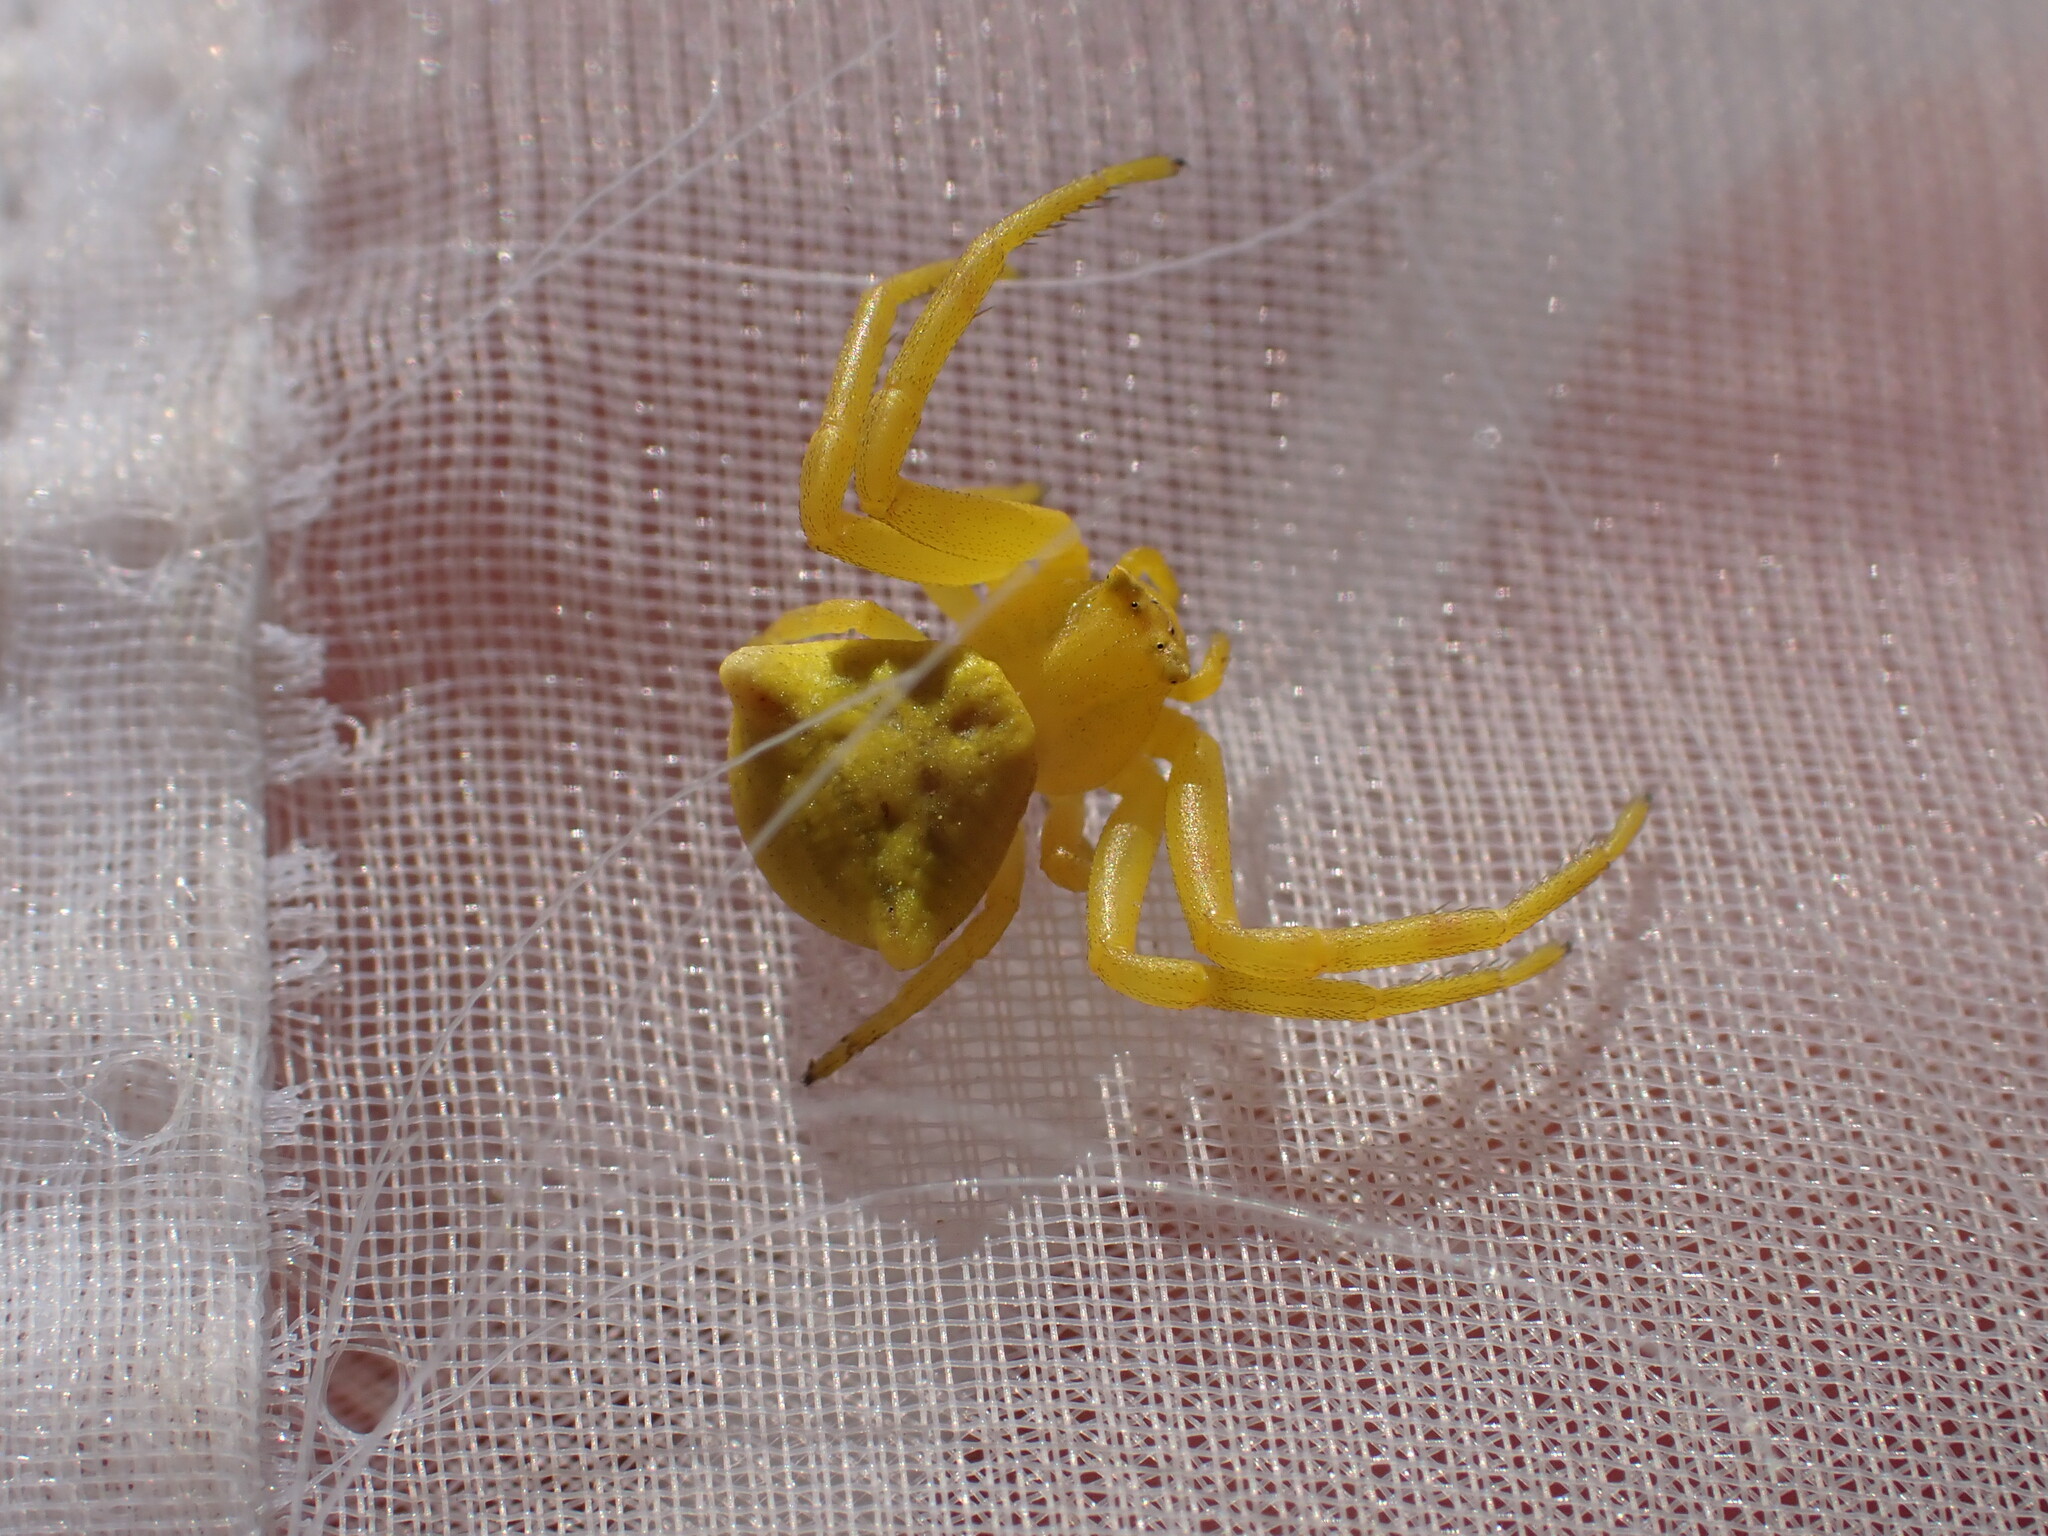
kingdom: Animalia
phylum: Arthropoda
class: Arachnida
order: Araneae
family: Thomisidae
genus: Thomisus
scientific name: Thomisus onustus
